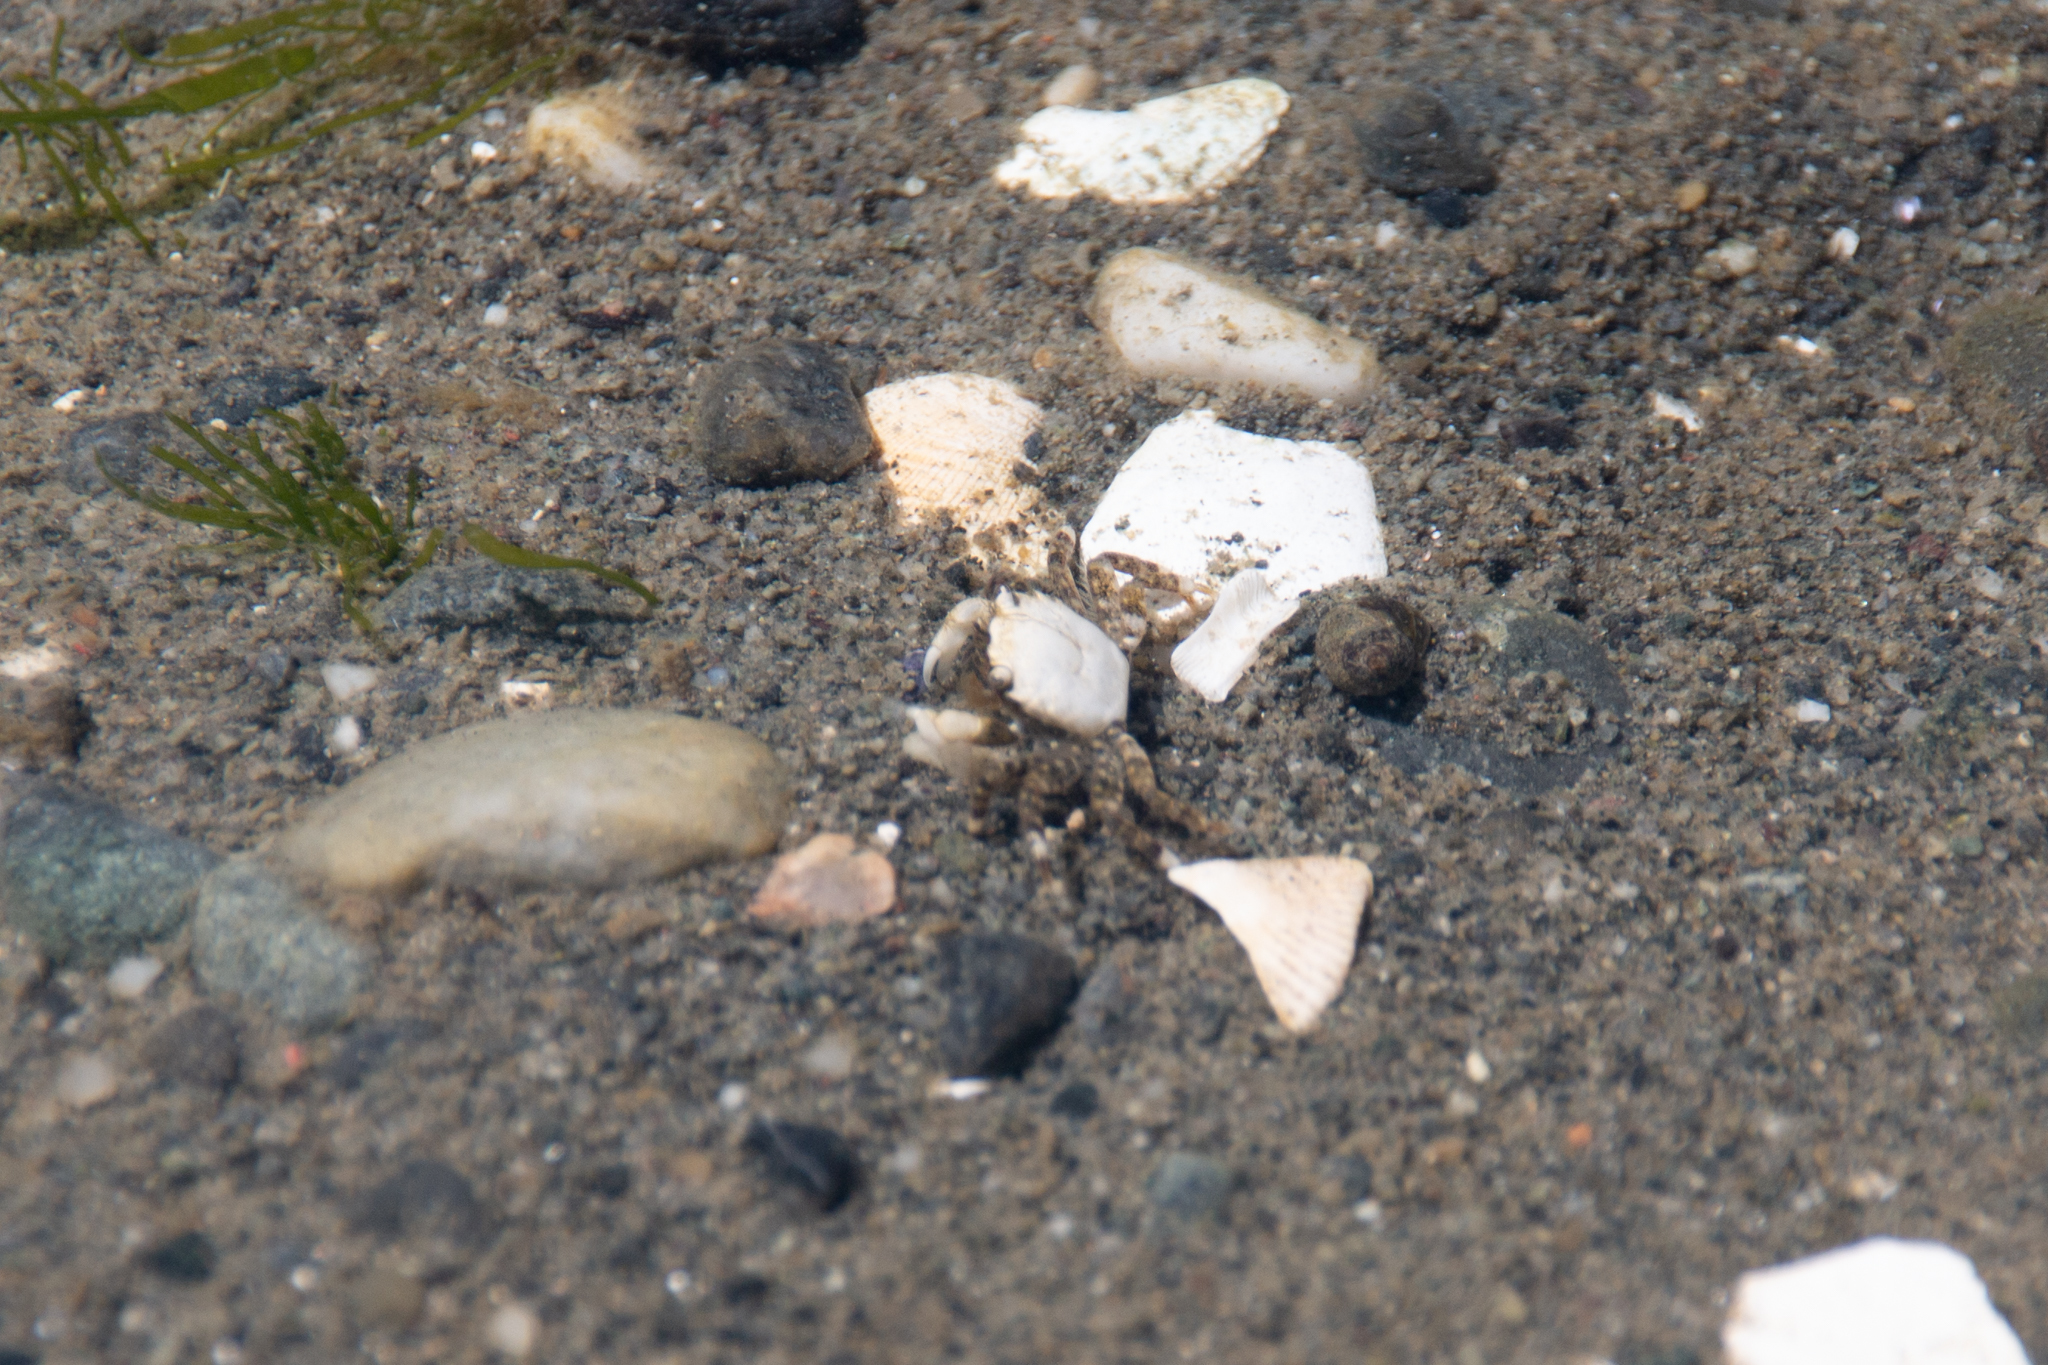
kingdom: Animalia
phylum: Arthropoda
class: Malacostraca
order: Decapoda
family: Varunidae
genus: Hemigrapsus
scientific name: Hemigrapsus oregonensis
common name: Yellow shore crab
